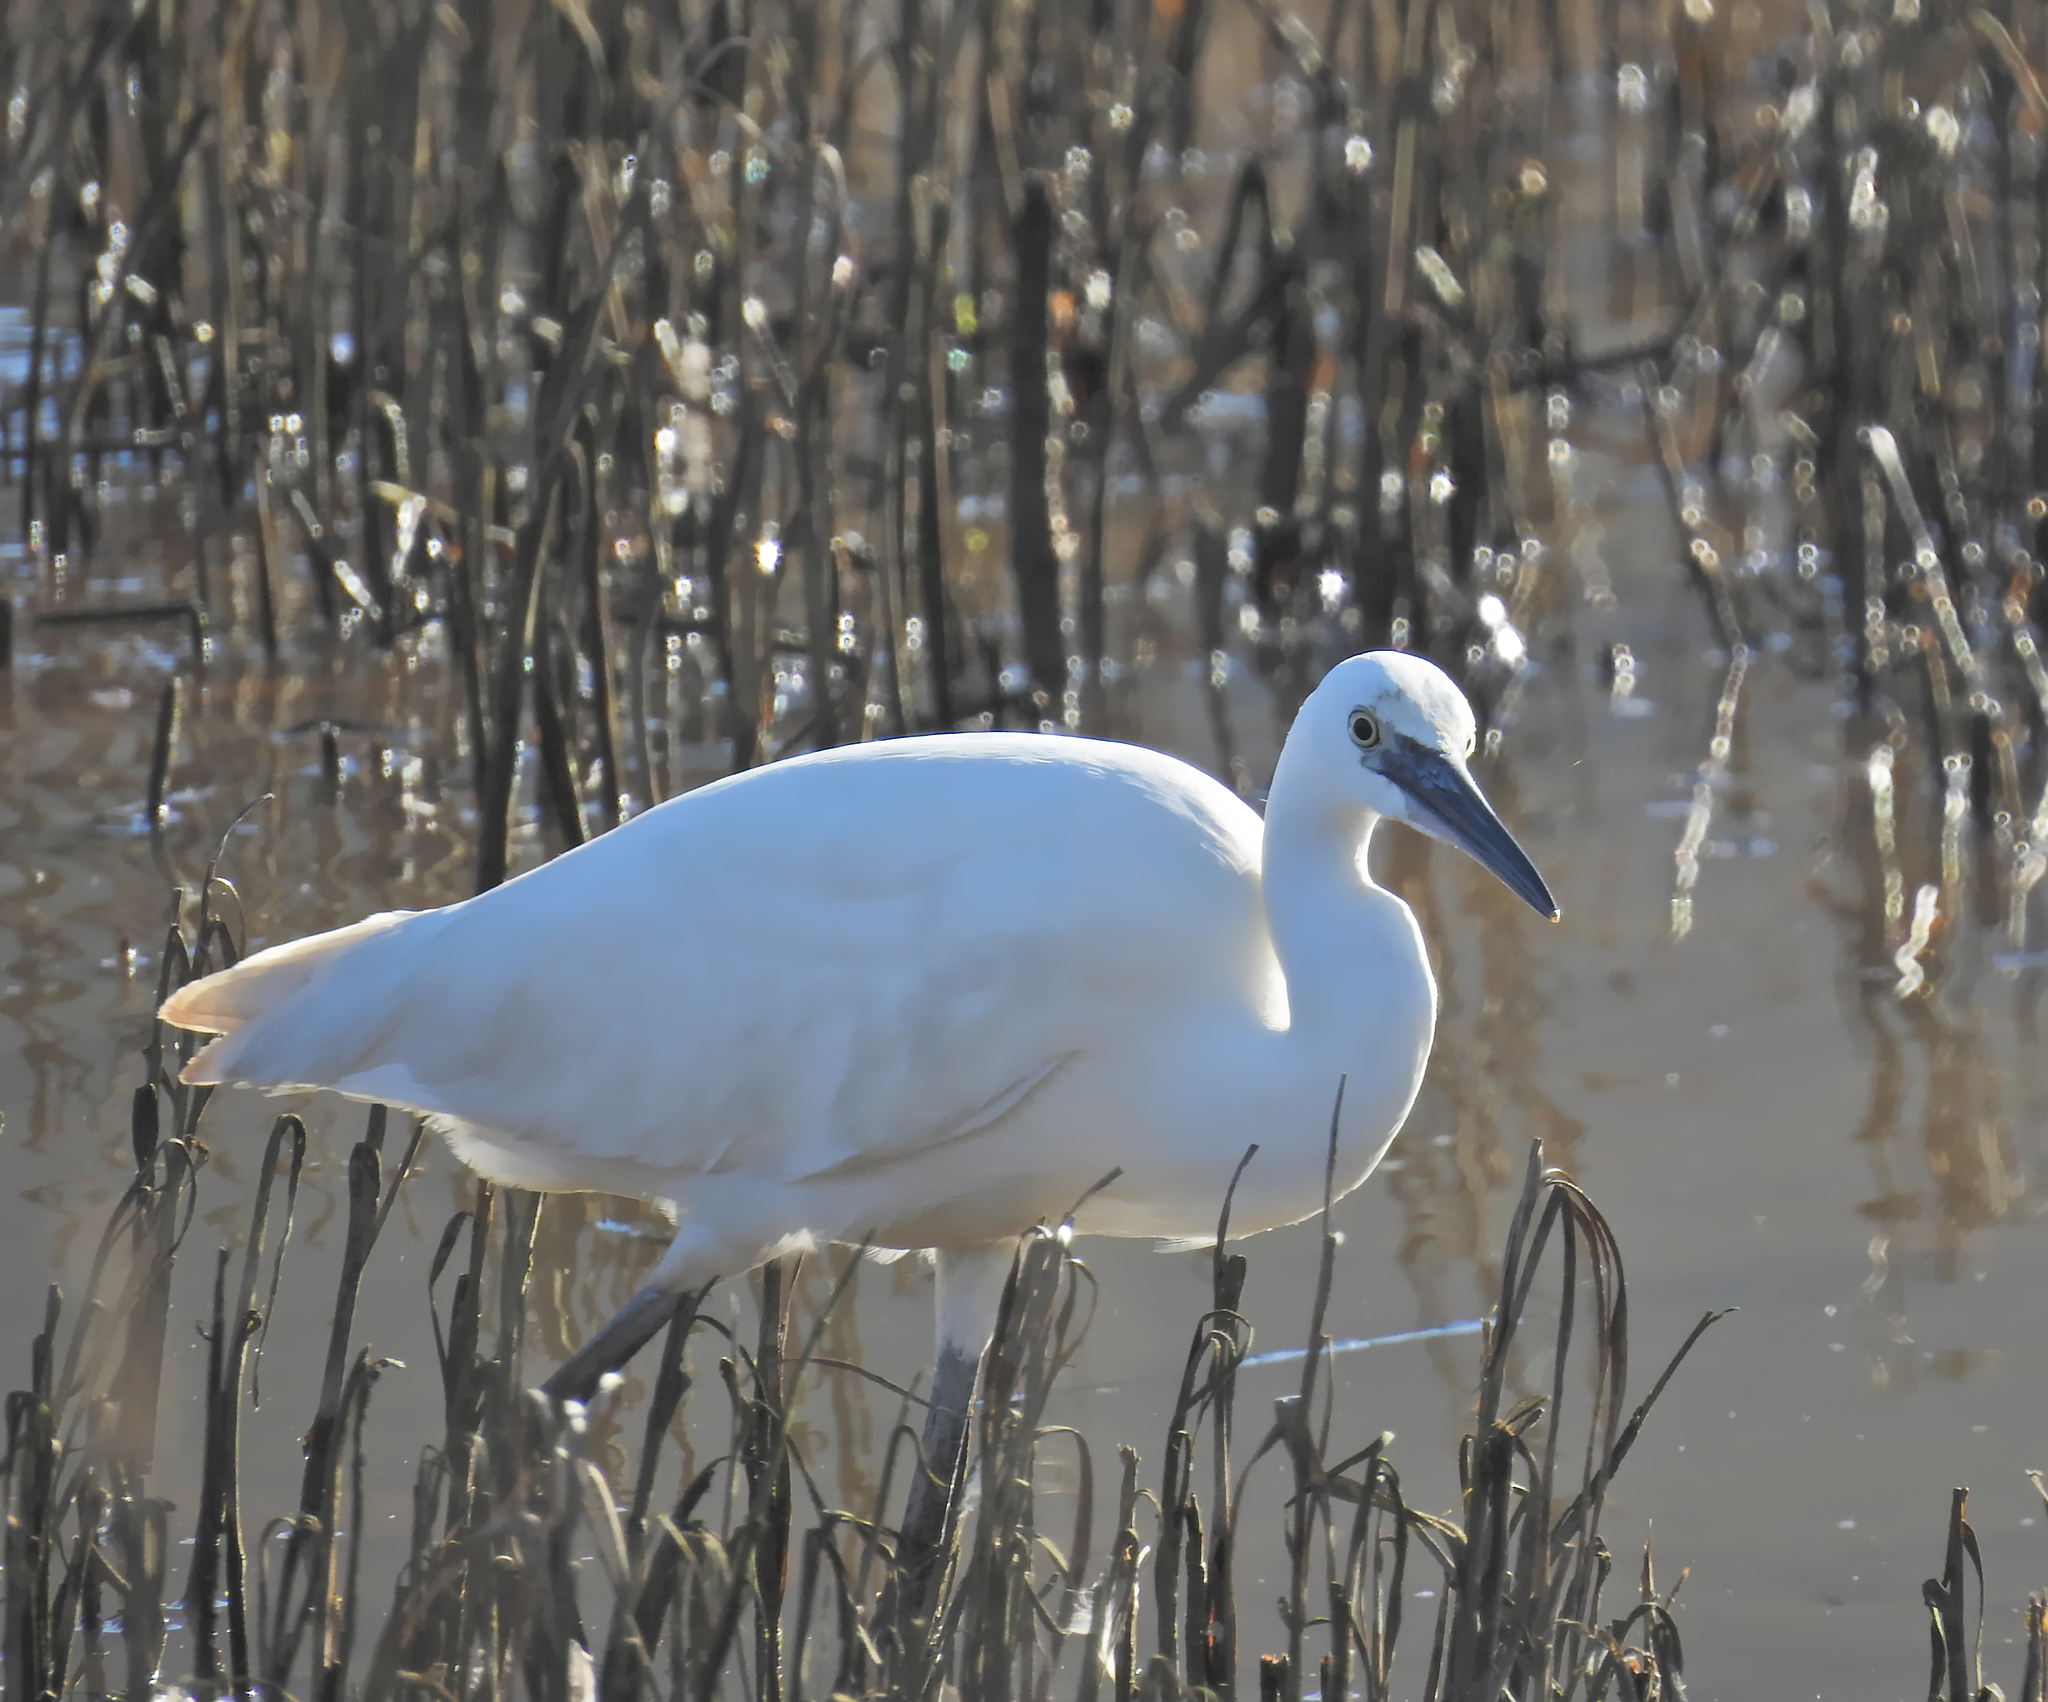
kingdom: Animalia
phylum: Chordata
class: Aves
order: Pelecaniformes
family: Ardeidae
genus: Egretta
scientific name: Egretta garzetta
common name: Little egret
